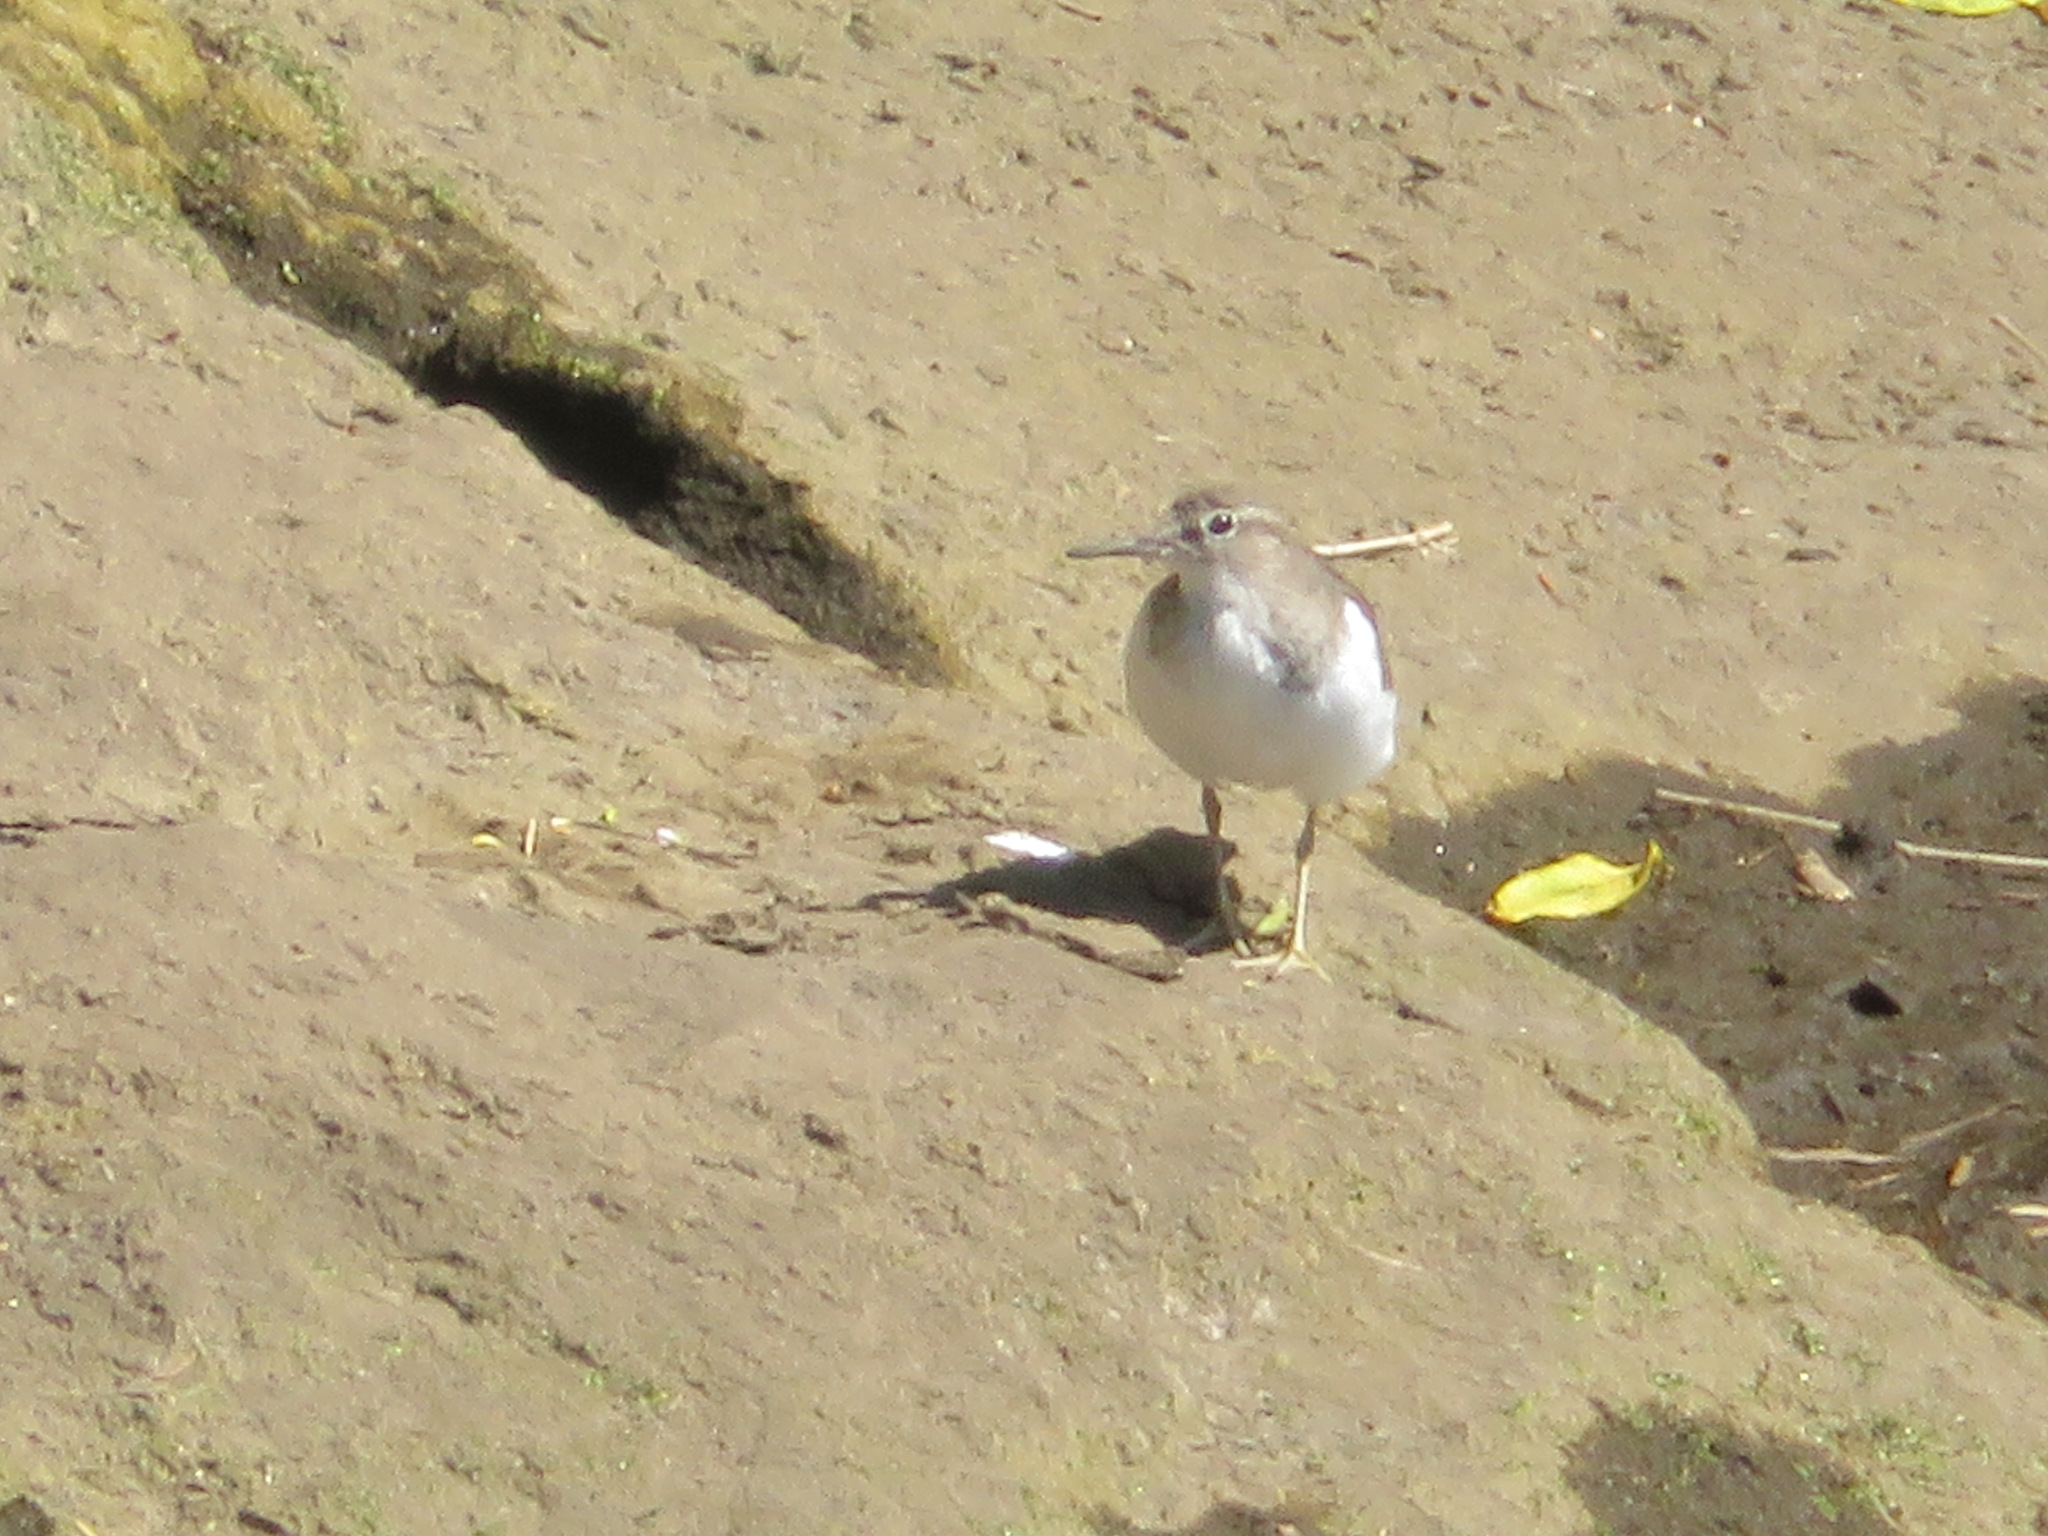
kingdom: Animalia
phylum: Chordata
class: Aves
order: Charadriiformes
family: Scolopacidae
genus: Actitis
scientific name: Actitis hypoleucos
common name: Common sandpiper
